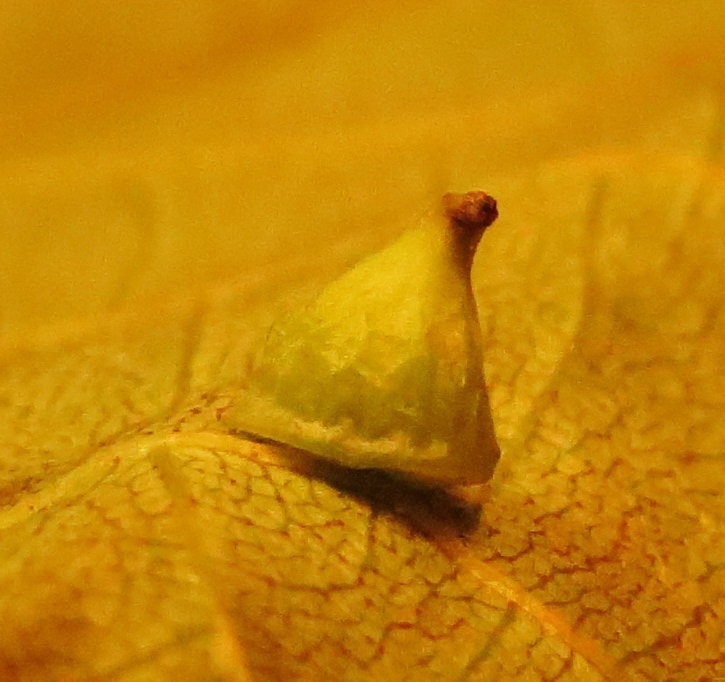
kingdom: Animalia
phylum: Arthropoda
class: Insecta
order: Diptera
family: Cecidomyiidae
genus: Caryomyia
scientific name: Caryomyia sanguinolenta
